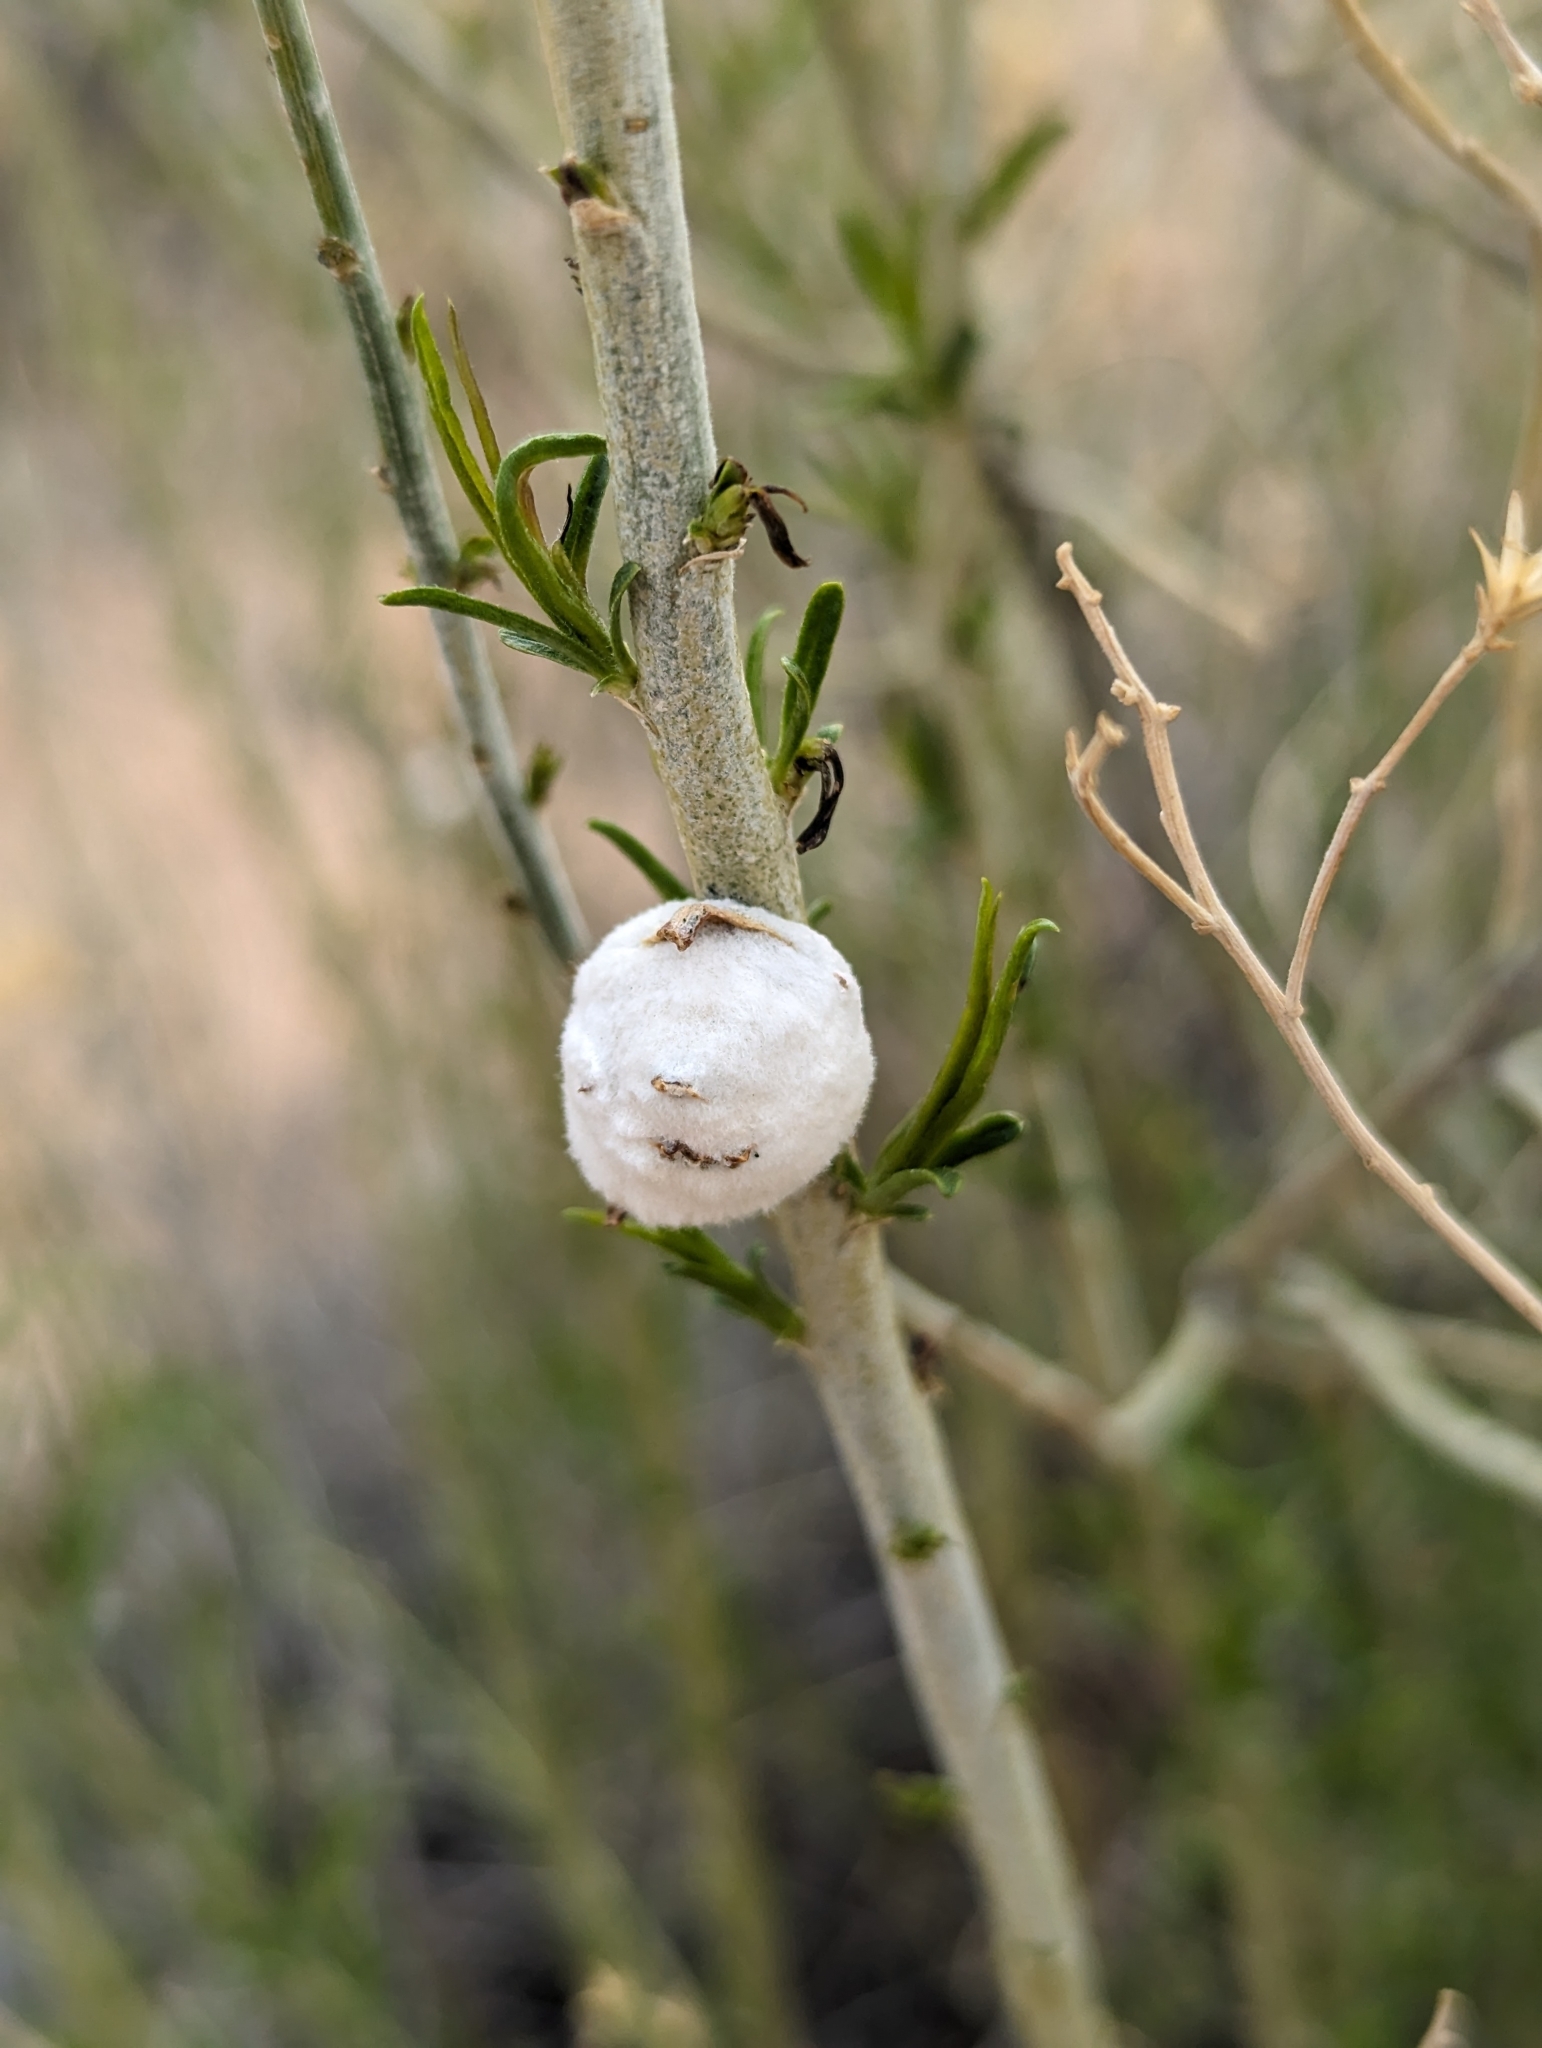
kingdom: Animalia
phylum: Arthropoda
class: Insecta
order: Diptera
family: Tephritidae
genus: Aciurina
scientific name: Aciurina bigeloviae
